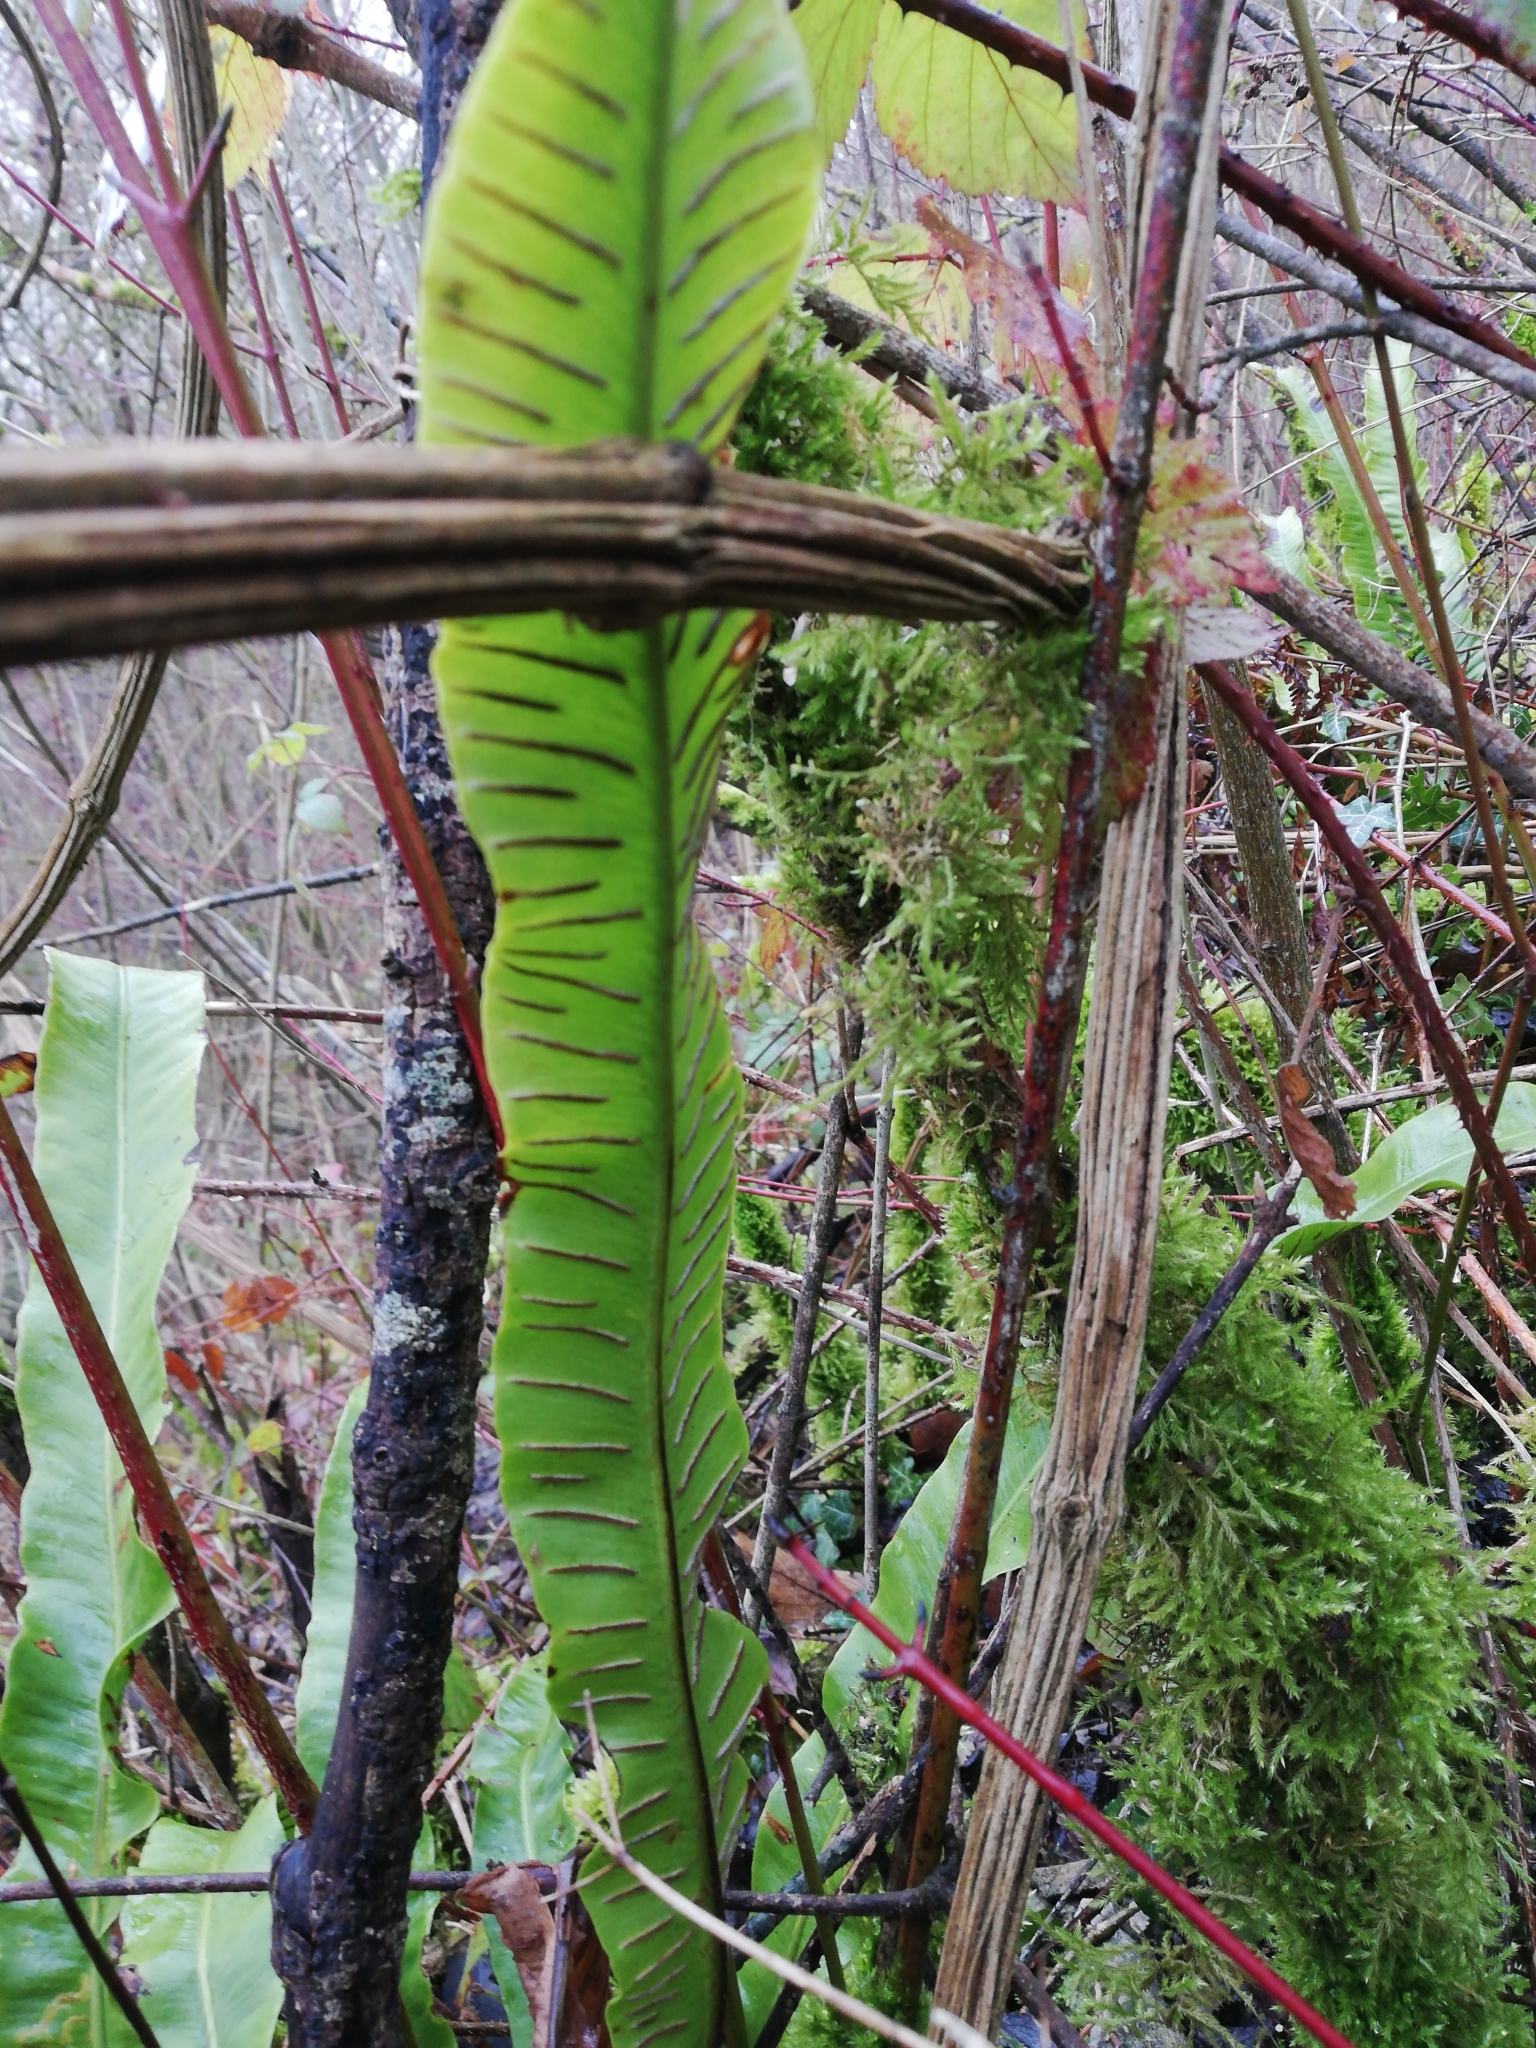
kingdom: Plantae
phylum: Tracheophyta
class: Polypodiopsida
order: Polypodiales
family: Aspleniaceae
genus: Asplenium
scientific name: Asplenium scolopendrium
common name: Hart's-tongue fern
